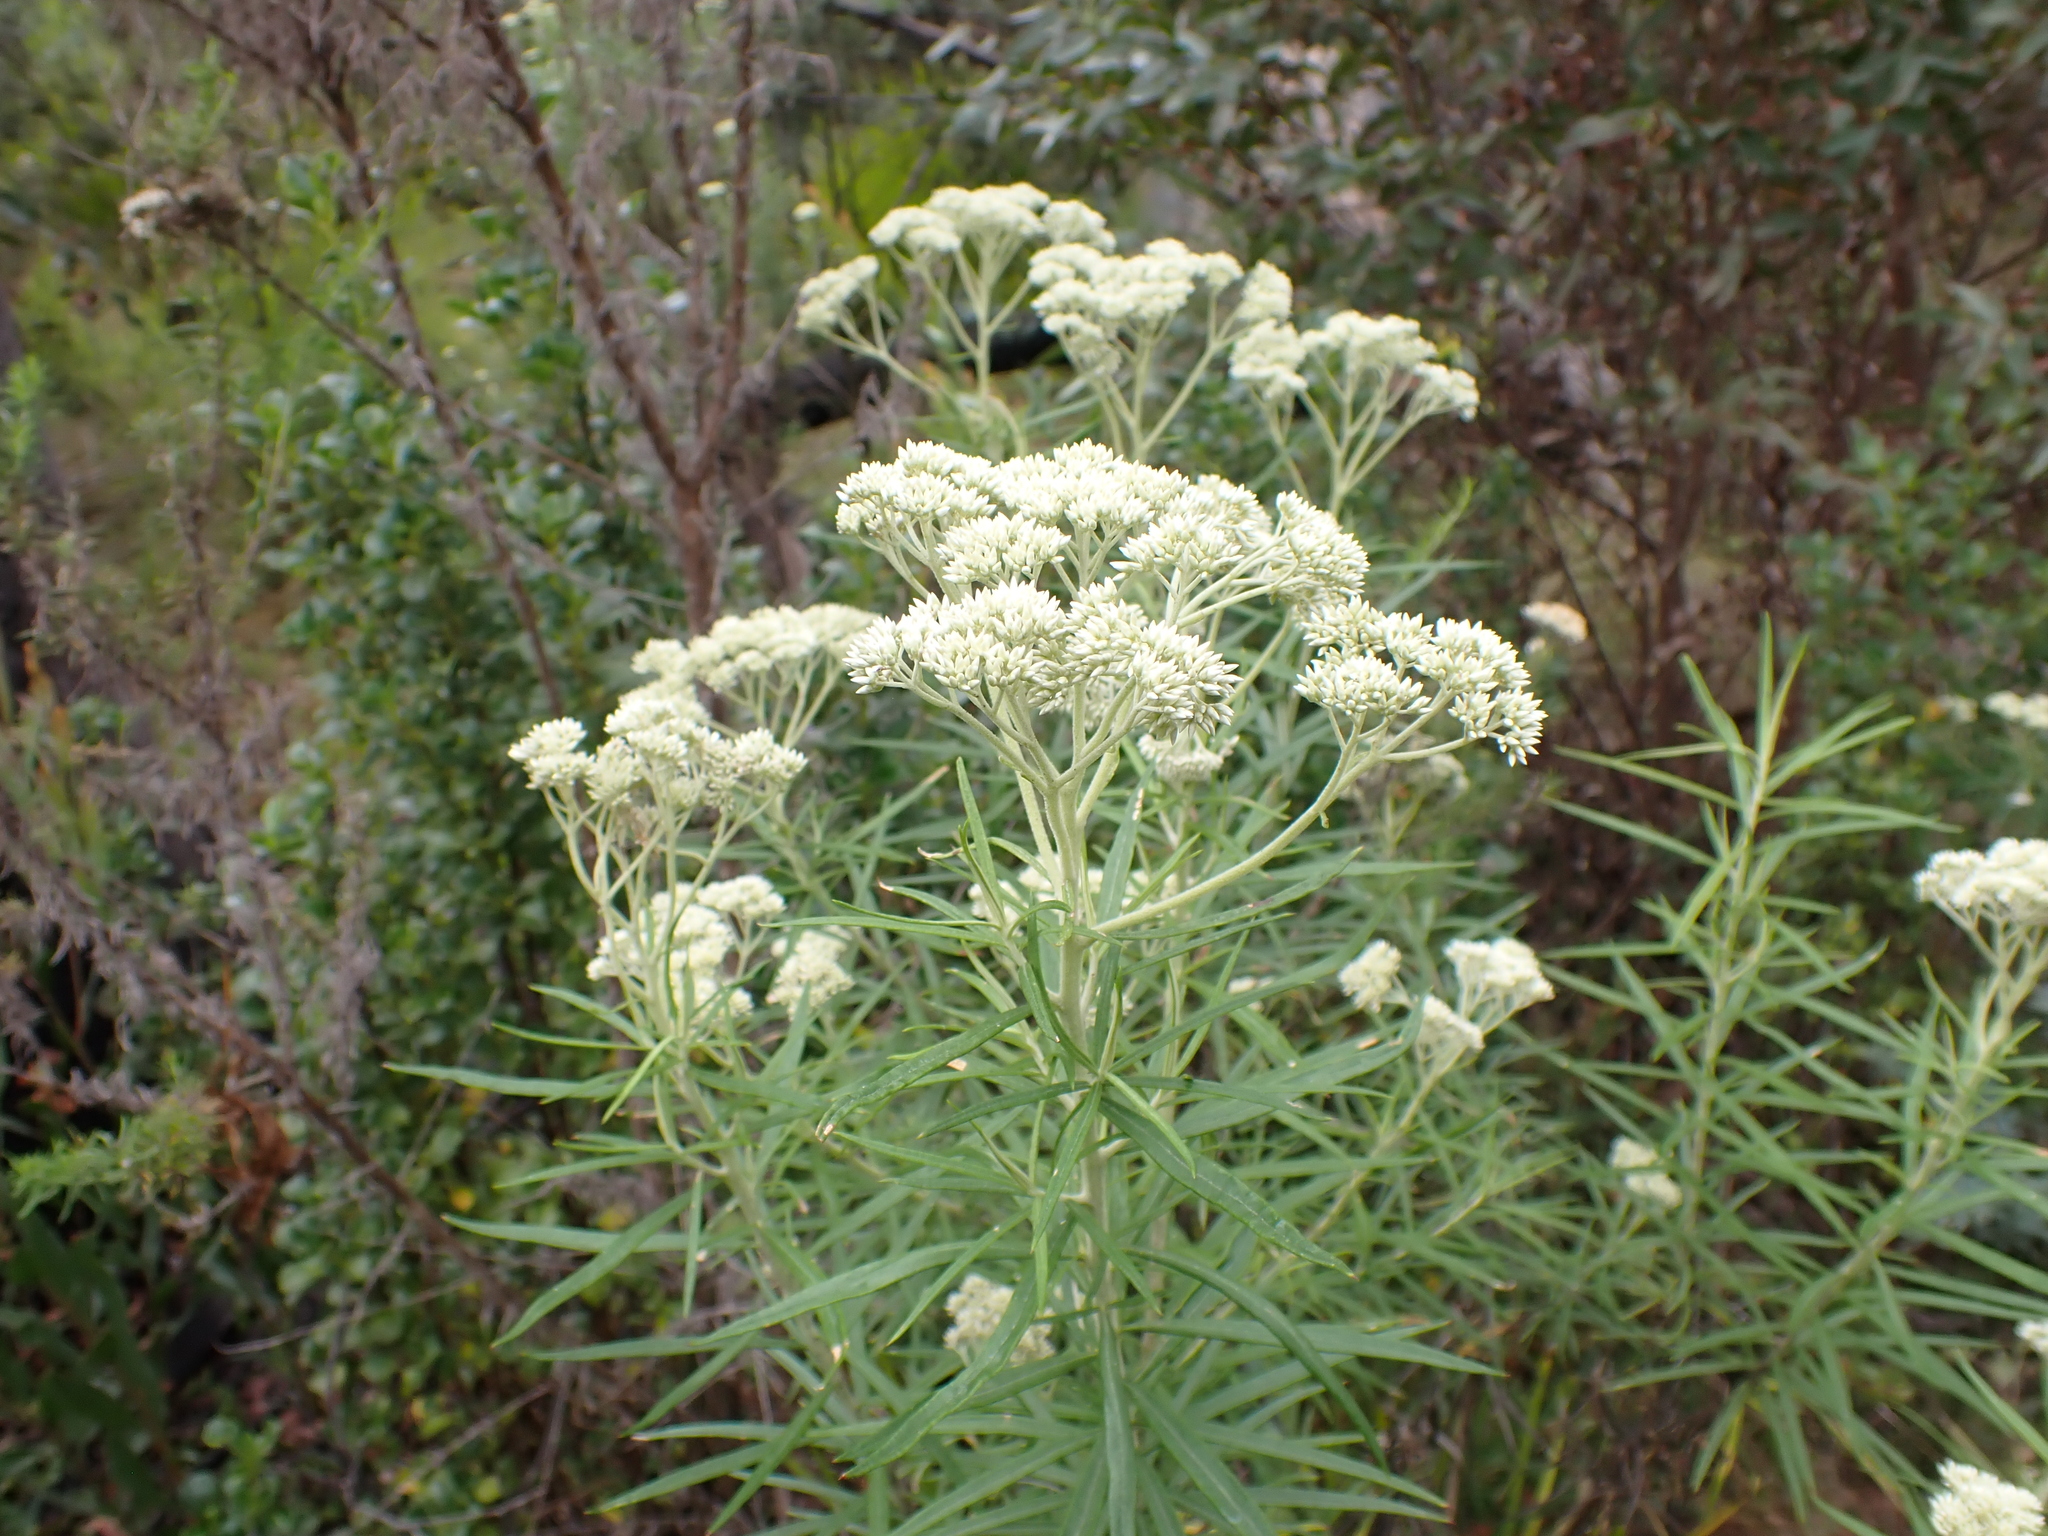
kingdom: Plantae
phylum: Tracheophyta
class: Magnoliopsida
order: Asterales
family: Asteraceae
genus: Cassinia
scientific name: Cassinia longifolia
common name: Longleaf-dogwood
